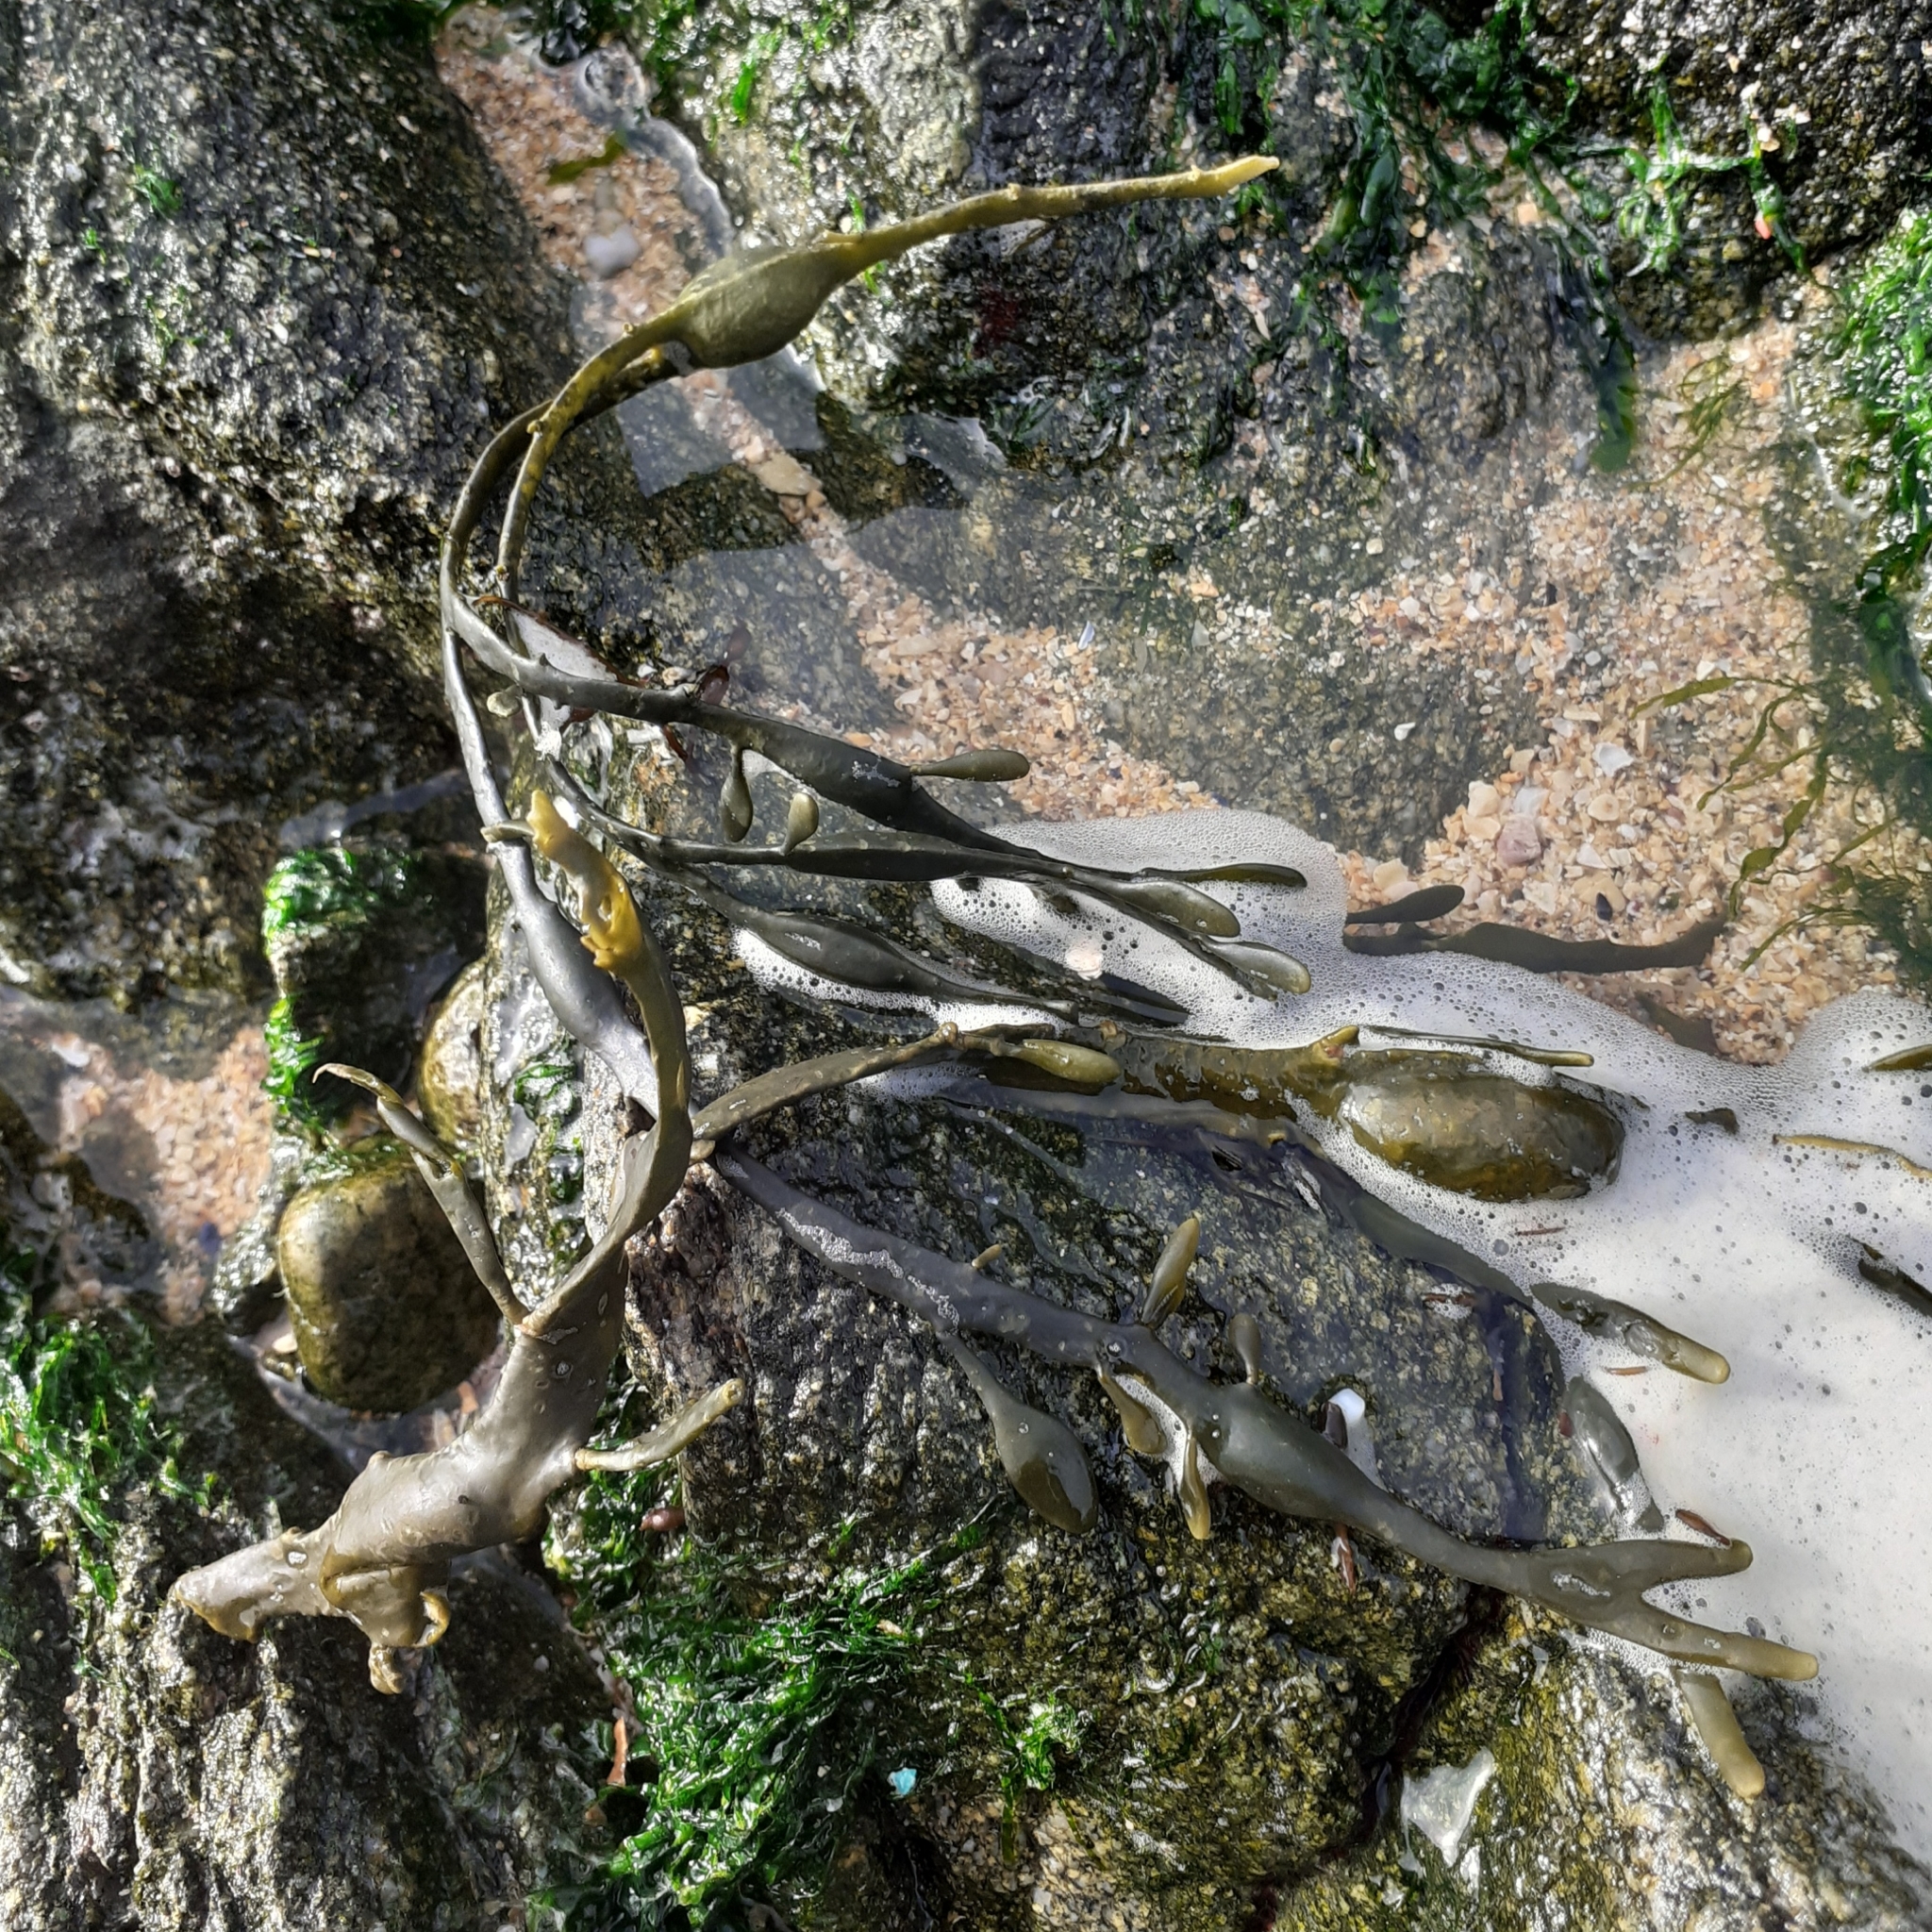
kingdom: Chromista
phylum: Ochrophyta
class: Phaeophyceae
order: Fucales
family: Fucaceae
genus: Ascophyllum
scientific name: Ascophyllum nodosum
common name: Knotted wrack
